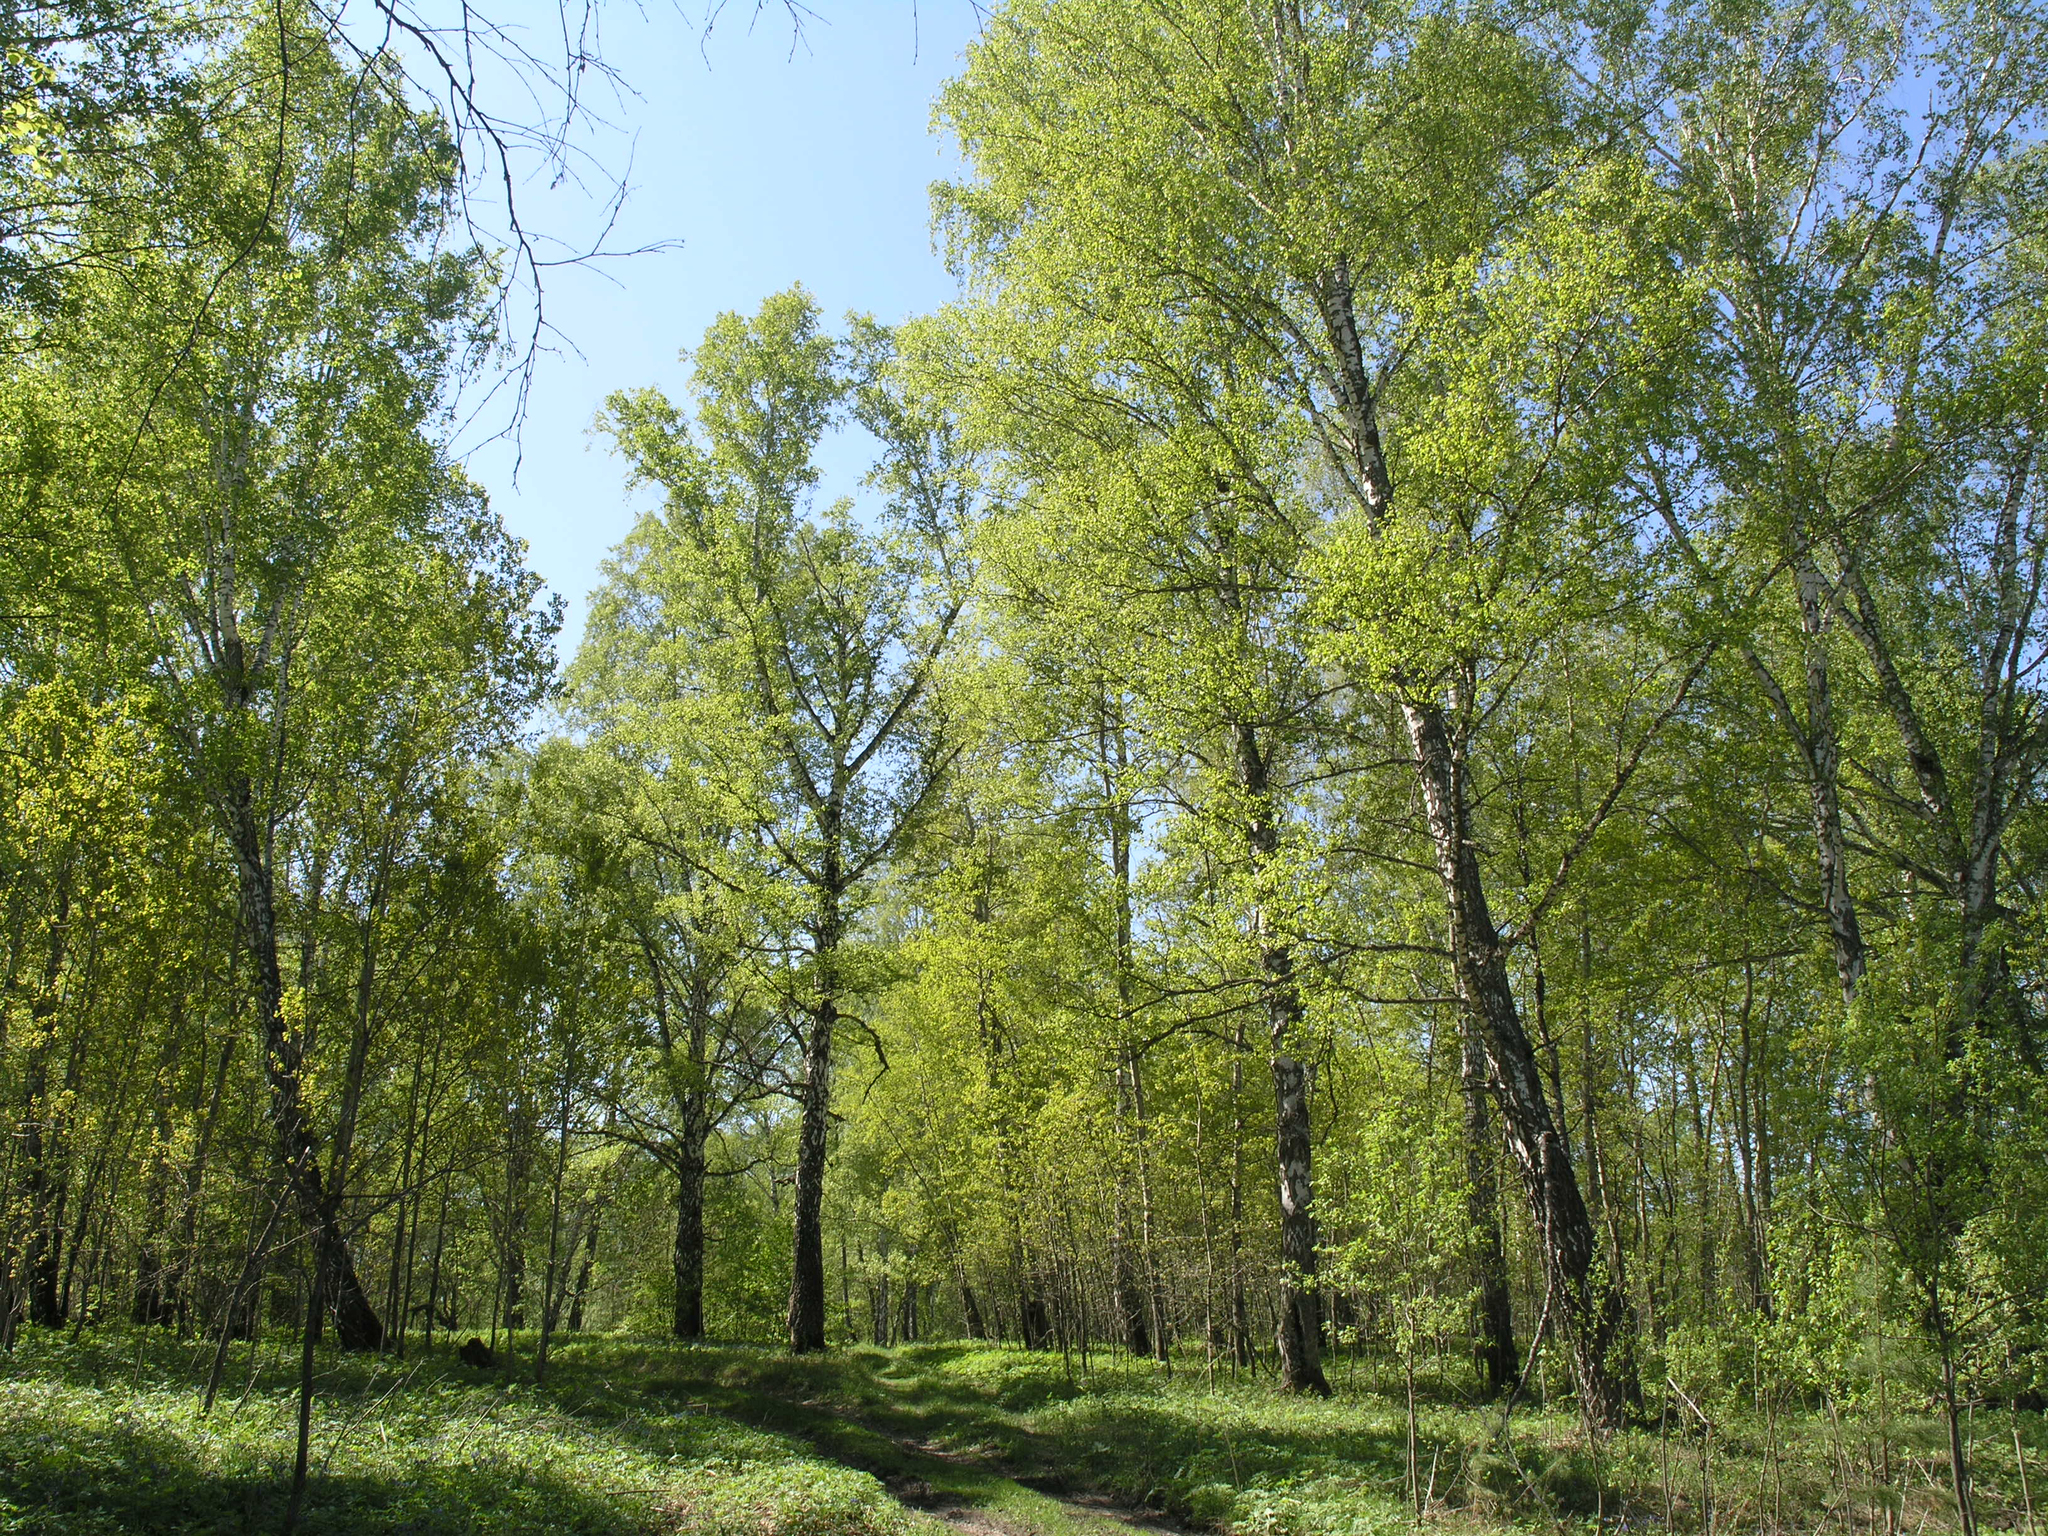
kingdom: Plantae
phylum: Tracheophyta
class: Magnoliopsida
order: Fagales
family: Betulaceae
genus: Betula
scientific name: Betula pendula
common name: Silver birch
